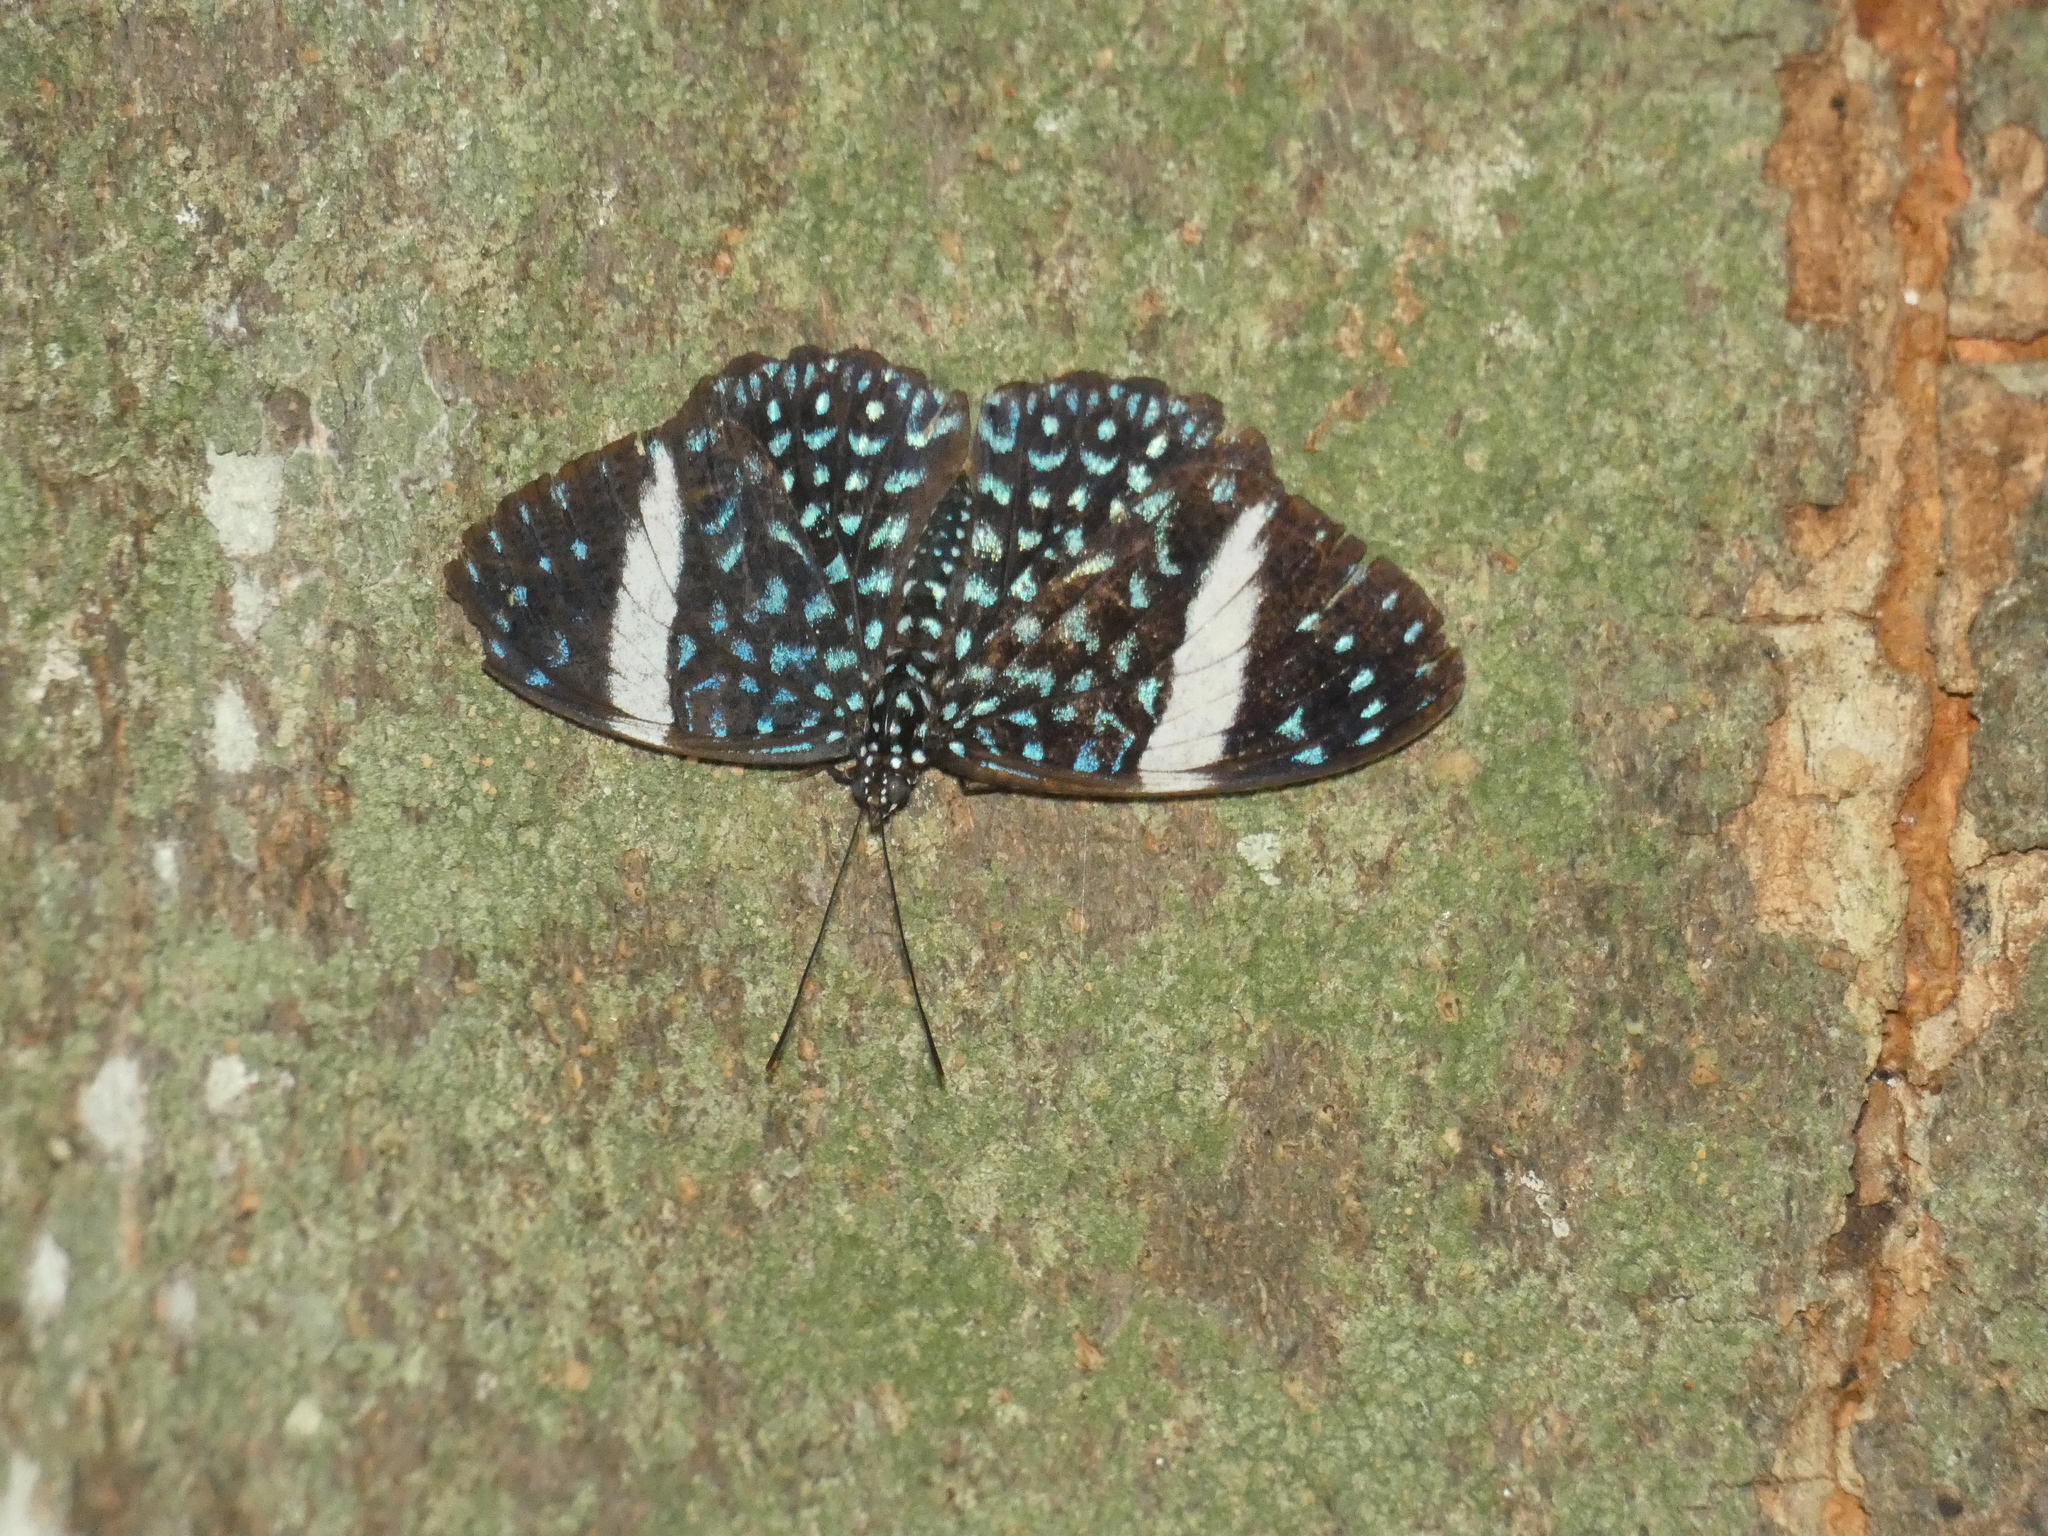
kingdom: Animalia
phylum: Arthropoda
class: Insecta
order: Lepidoptera
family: Nymphalidae
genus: Hamadryas
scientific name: Hamadryas laodamia
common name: Starry night cracker
